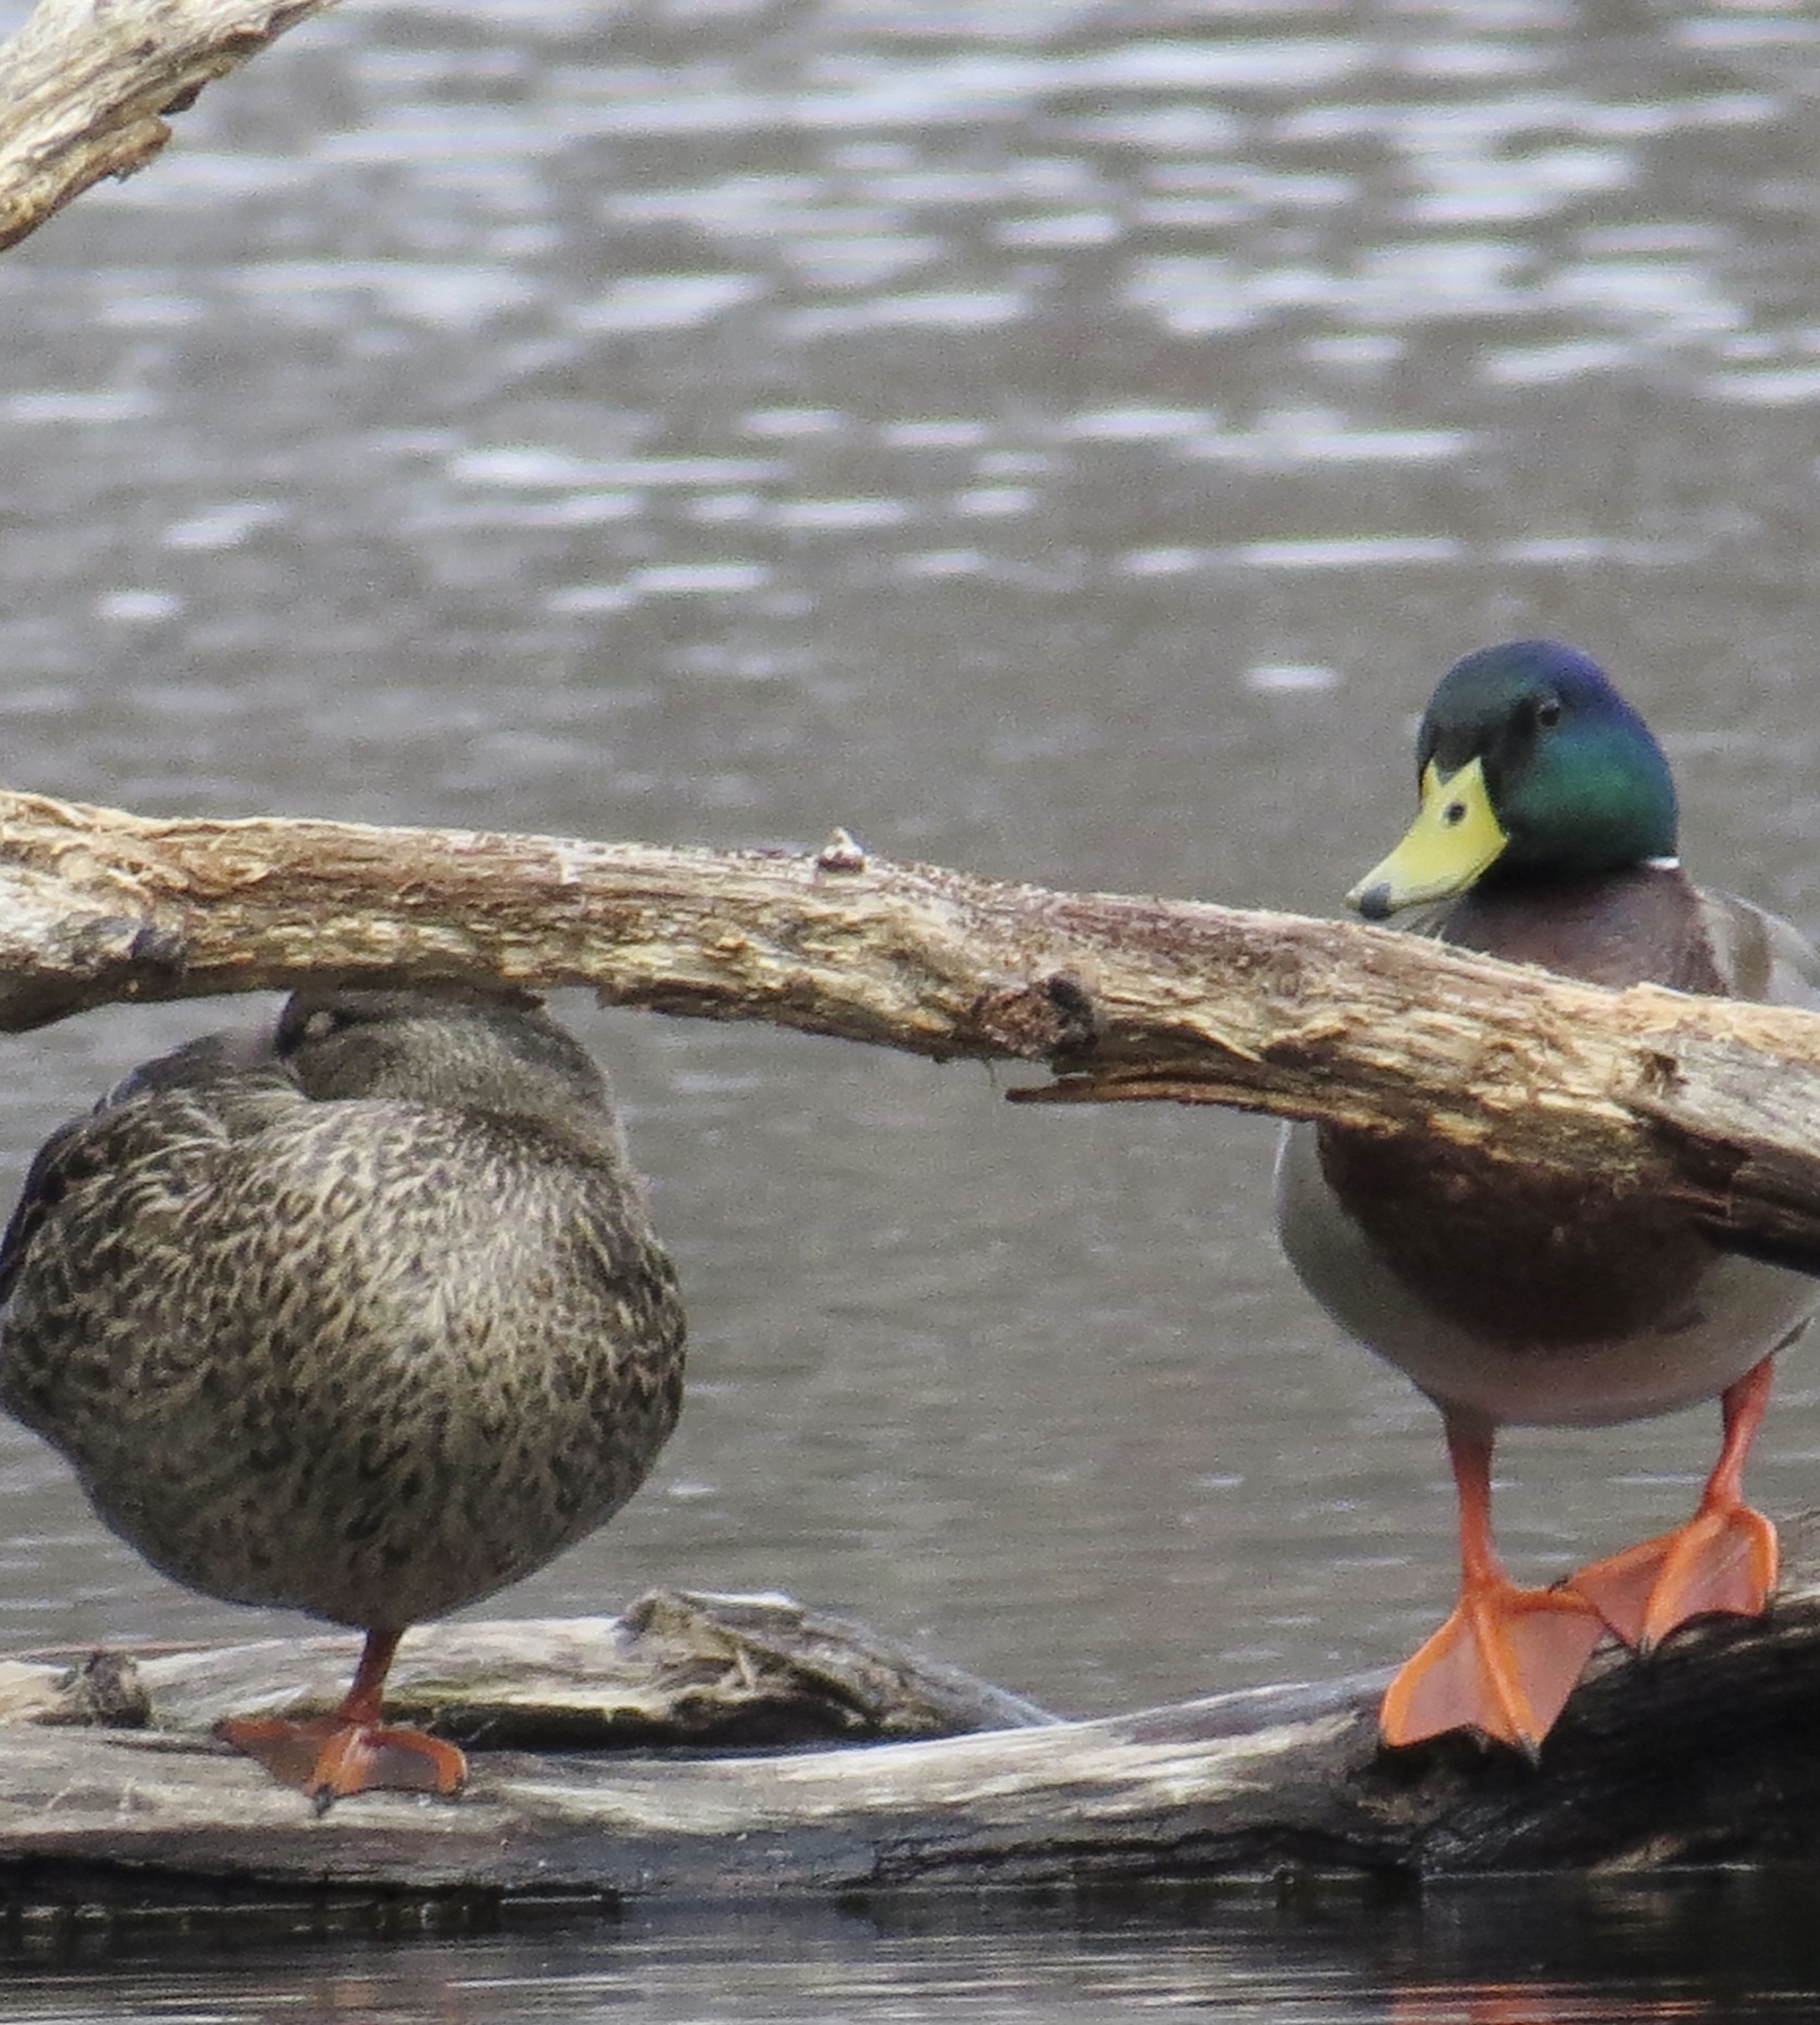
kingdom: Animalia
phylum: Chordata
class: Aves
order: Anseriformes
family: Anatidae
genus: Anas
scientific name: Anas platyrhynchos
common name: Mallard
